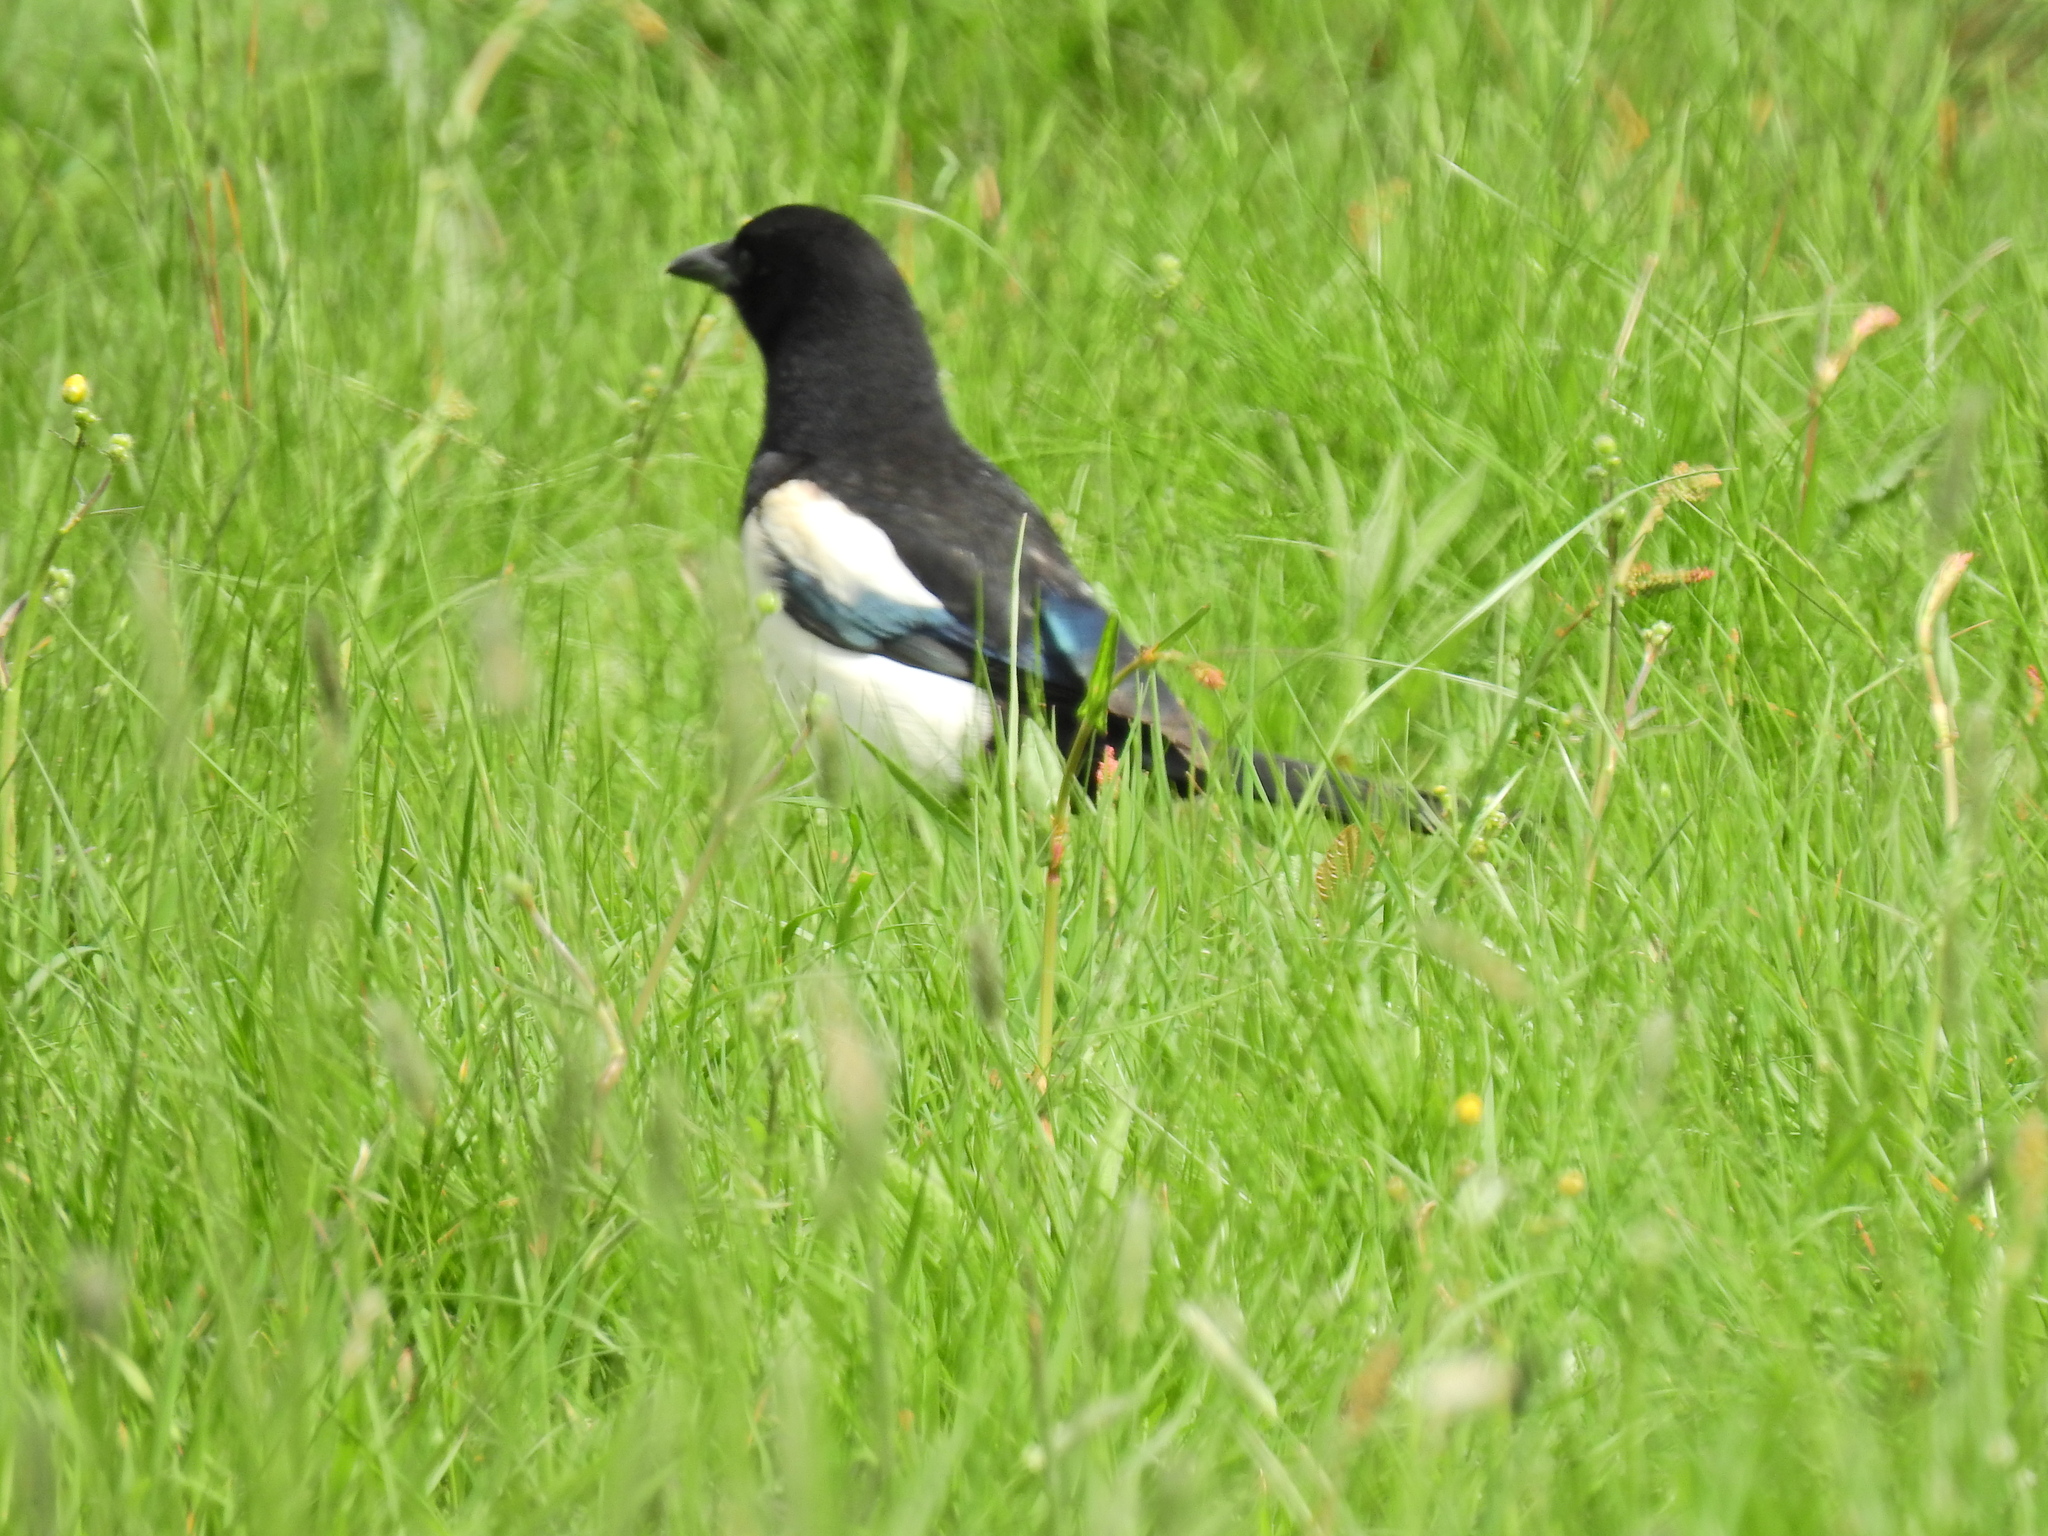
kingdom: Animalia
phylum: Chordata
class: Aves
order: Passeriformes
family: Corvidae
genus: Pica
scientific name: Pica pica
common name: Eurasian magpie
